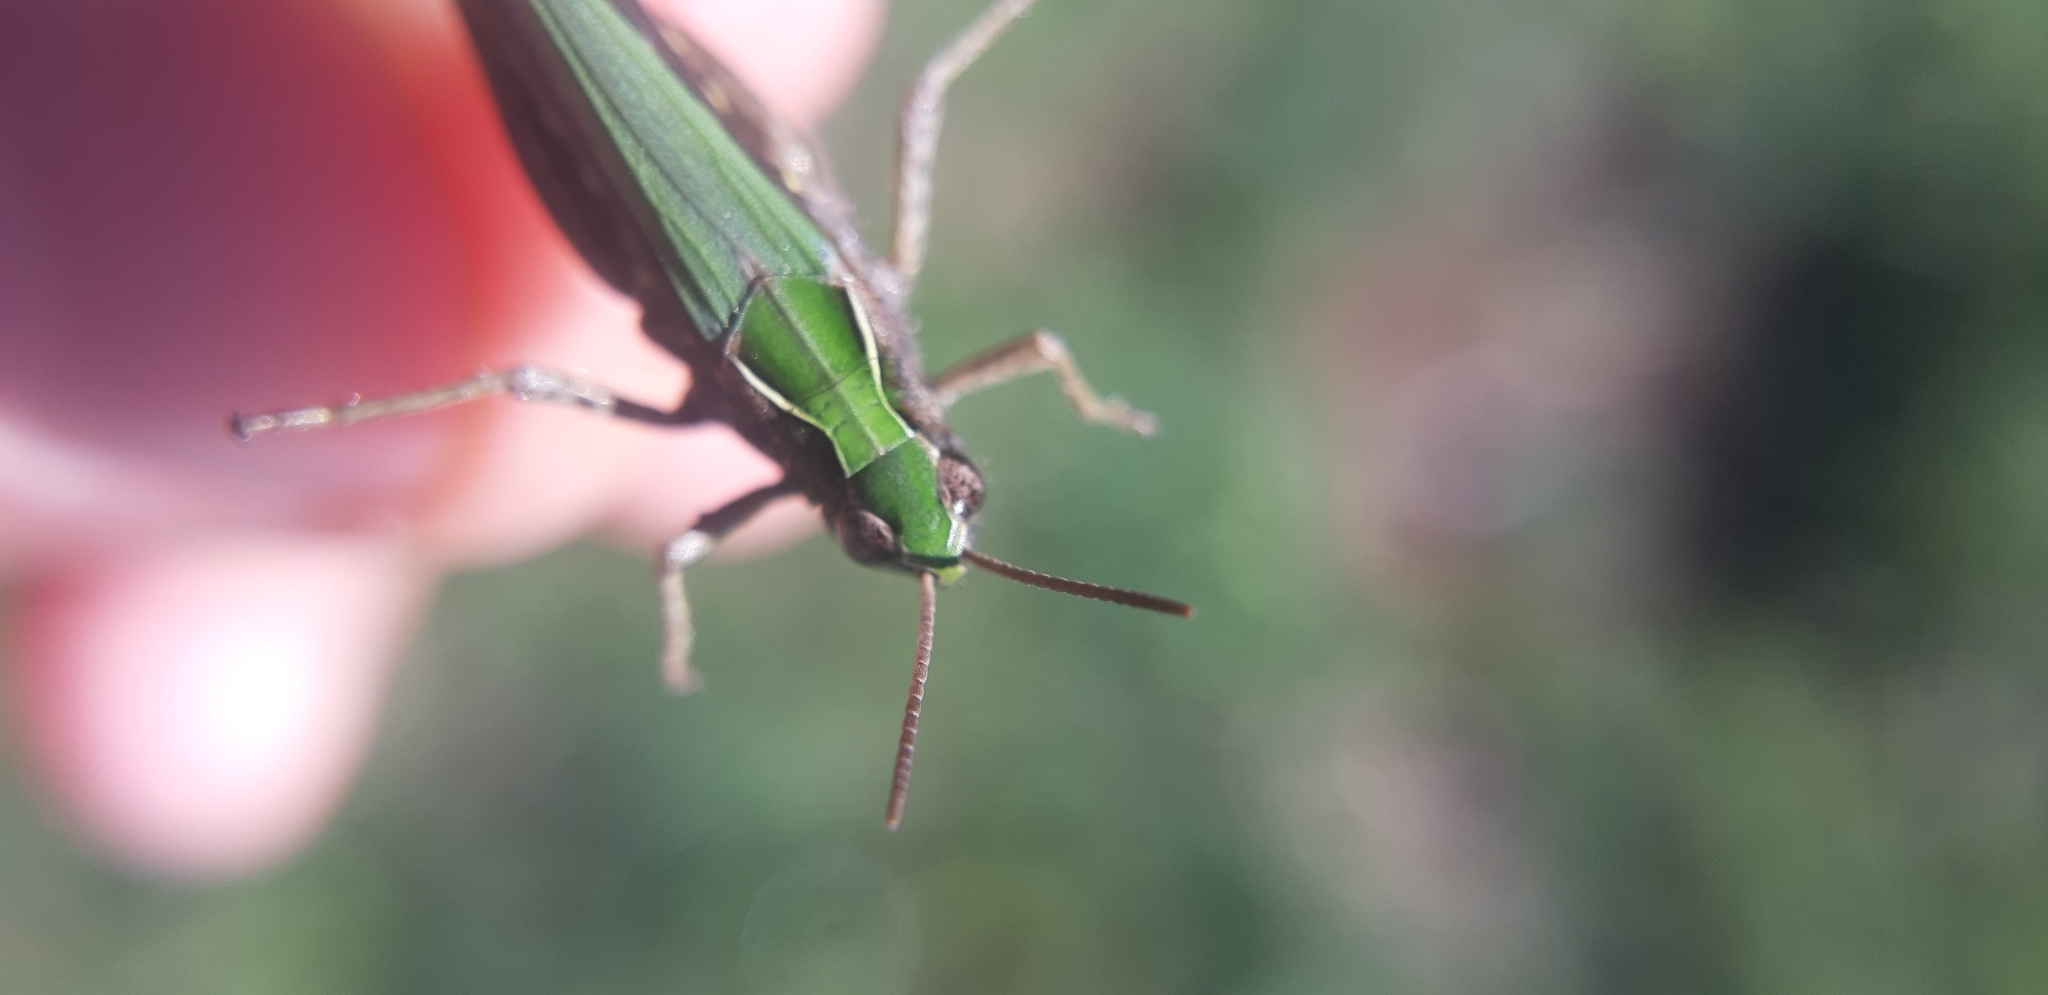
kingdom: Animalia
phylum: Arthropoda
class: Insecta
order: Orthoptera
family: Acrididae
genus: Chorthippus
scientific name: Chorthippus dorsatus
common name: Steppe grasshopper
